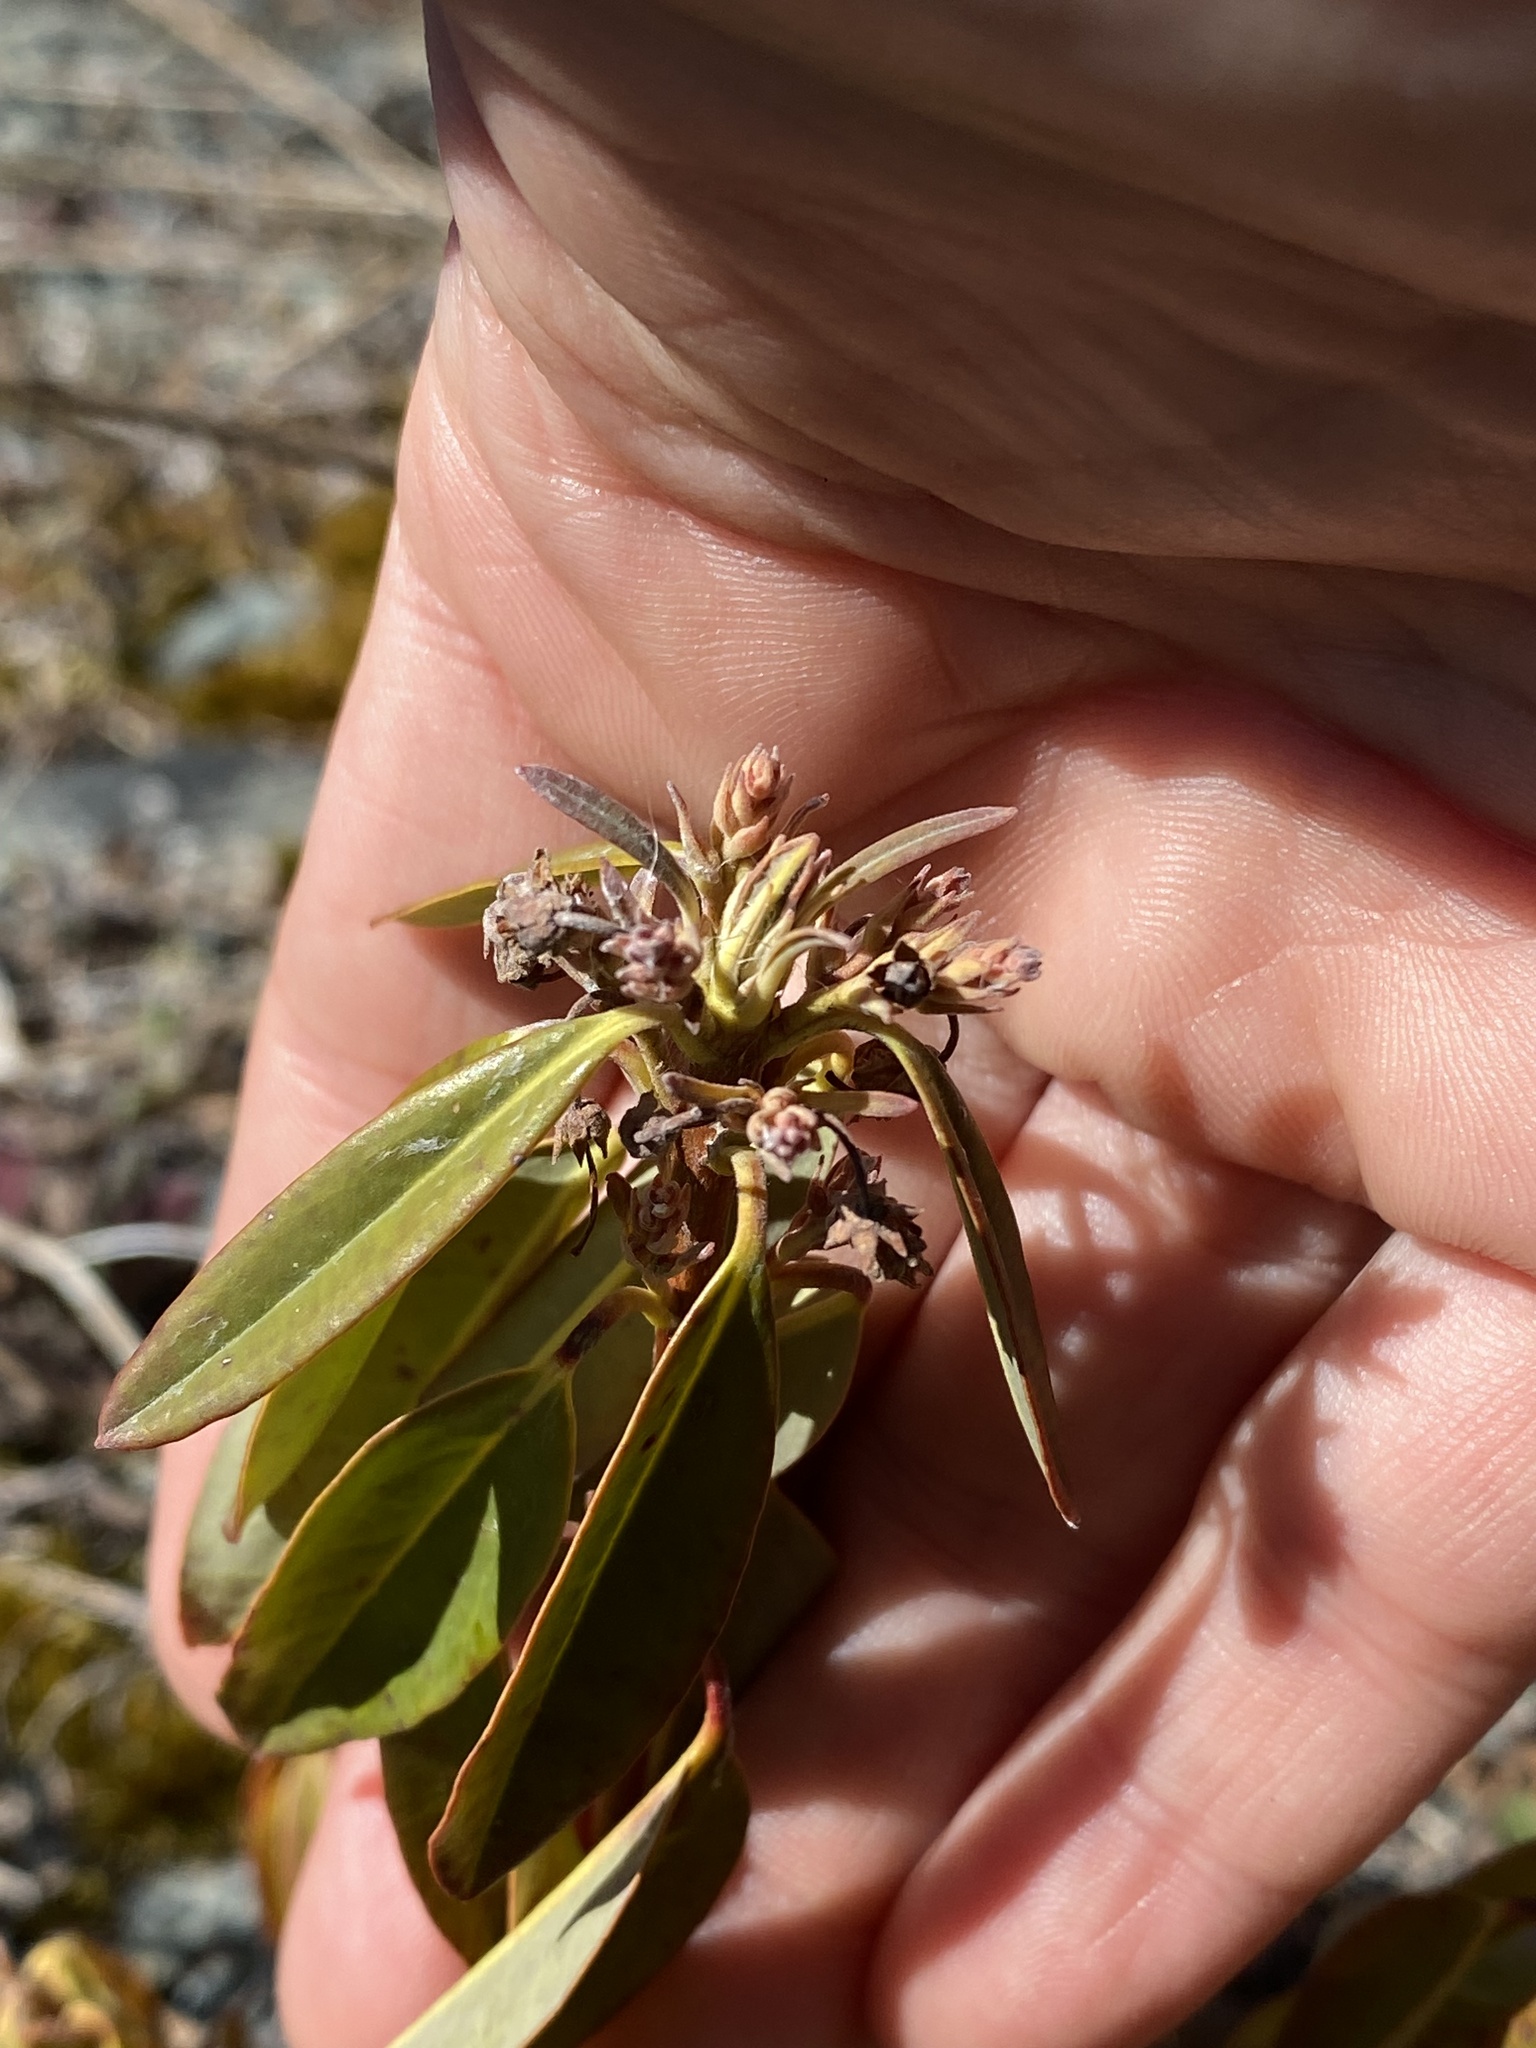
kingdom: Plantae
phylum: Tracheophyta
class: Magnoliopsida
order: Ericales
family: Ericaceae
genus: Kalmia
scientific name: Kalmia angustifolia
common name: Sheep-laurel
